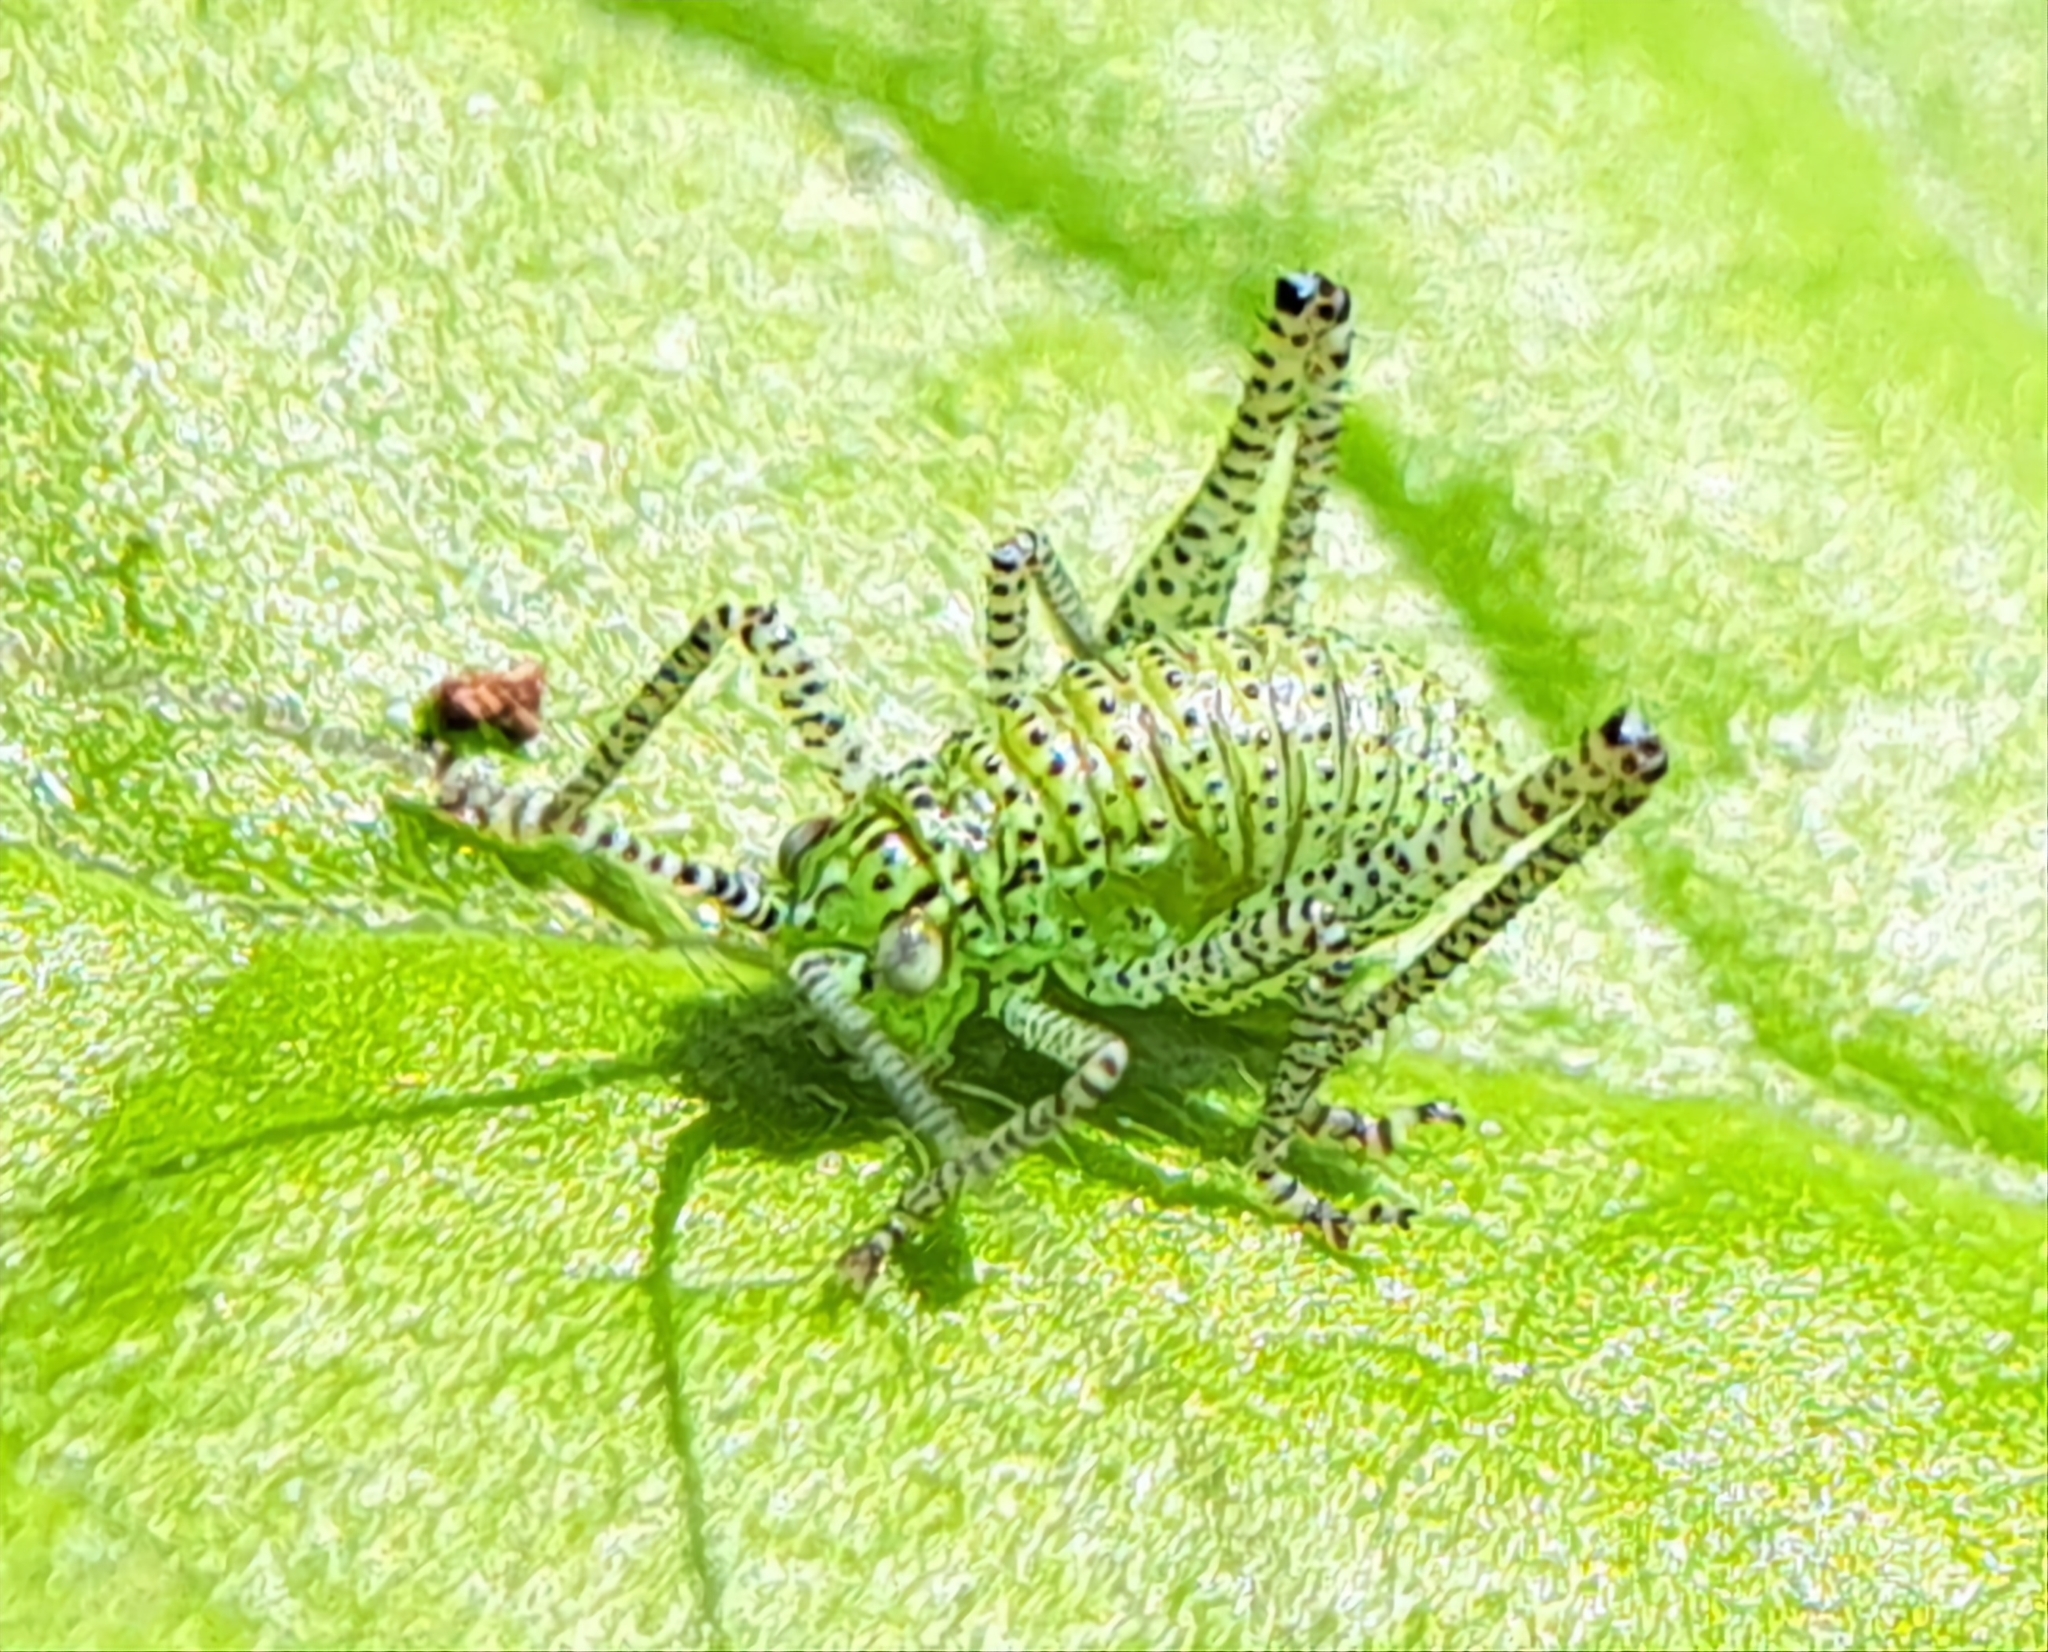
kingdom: Animalia
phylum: Arthropoda
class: Insecta
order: Orthoptera
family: Tettigoniidae
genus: Leptophyes
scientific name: Leptophyes punctatissima
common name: Speckled bush-cricket
